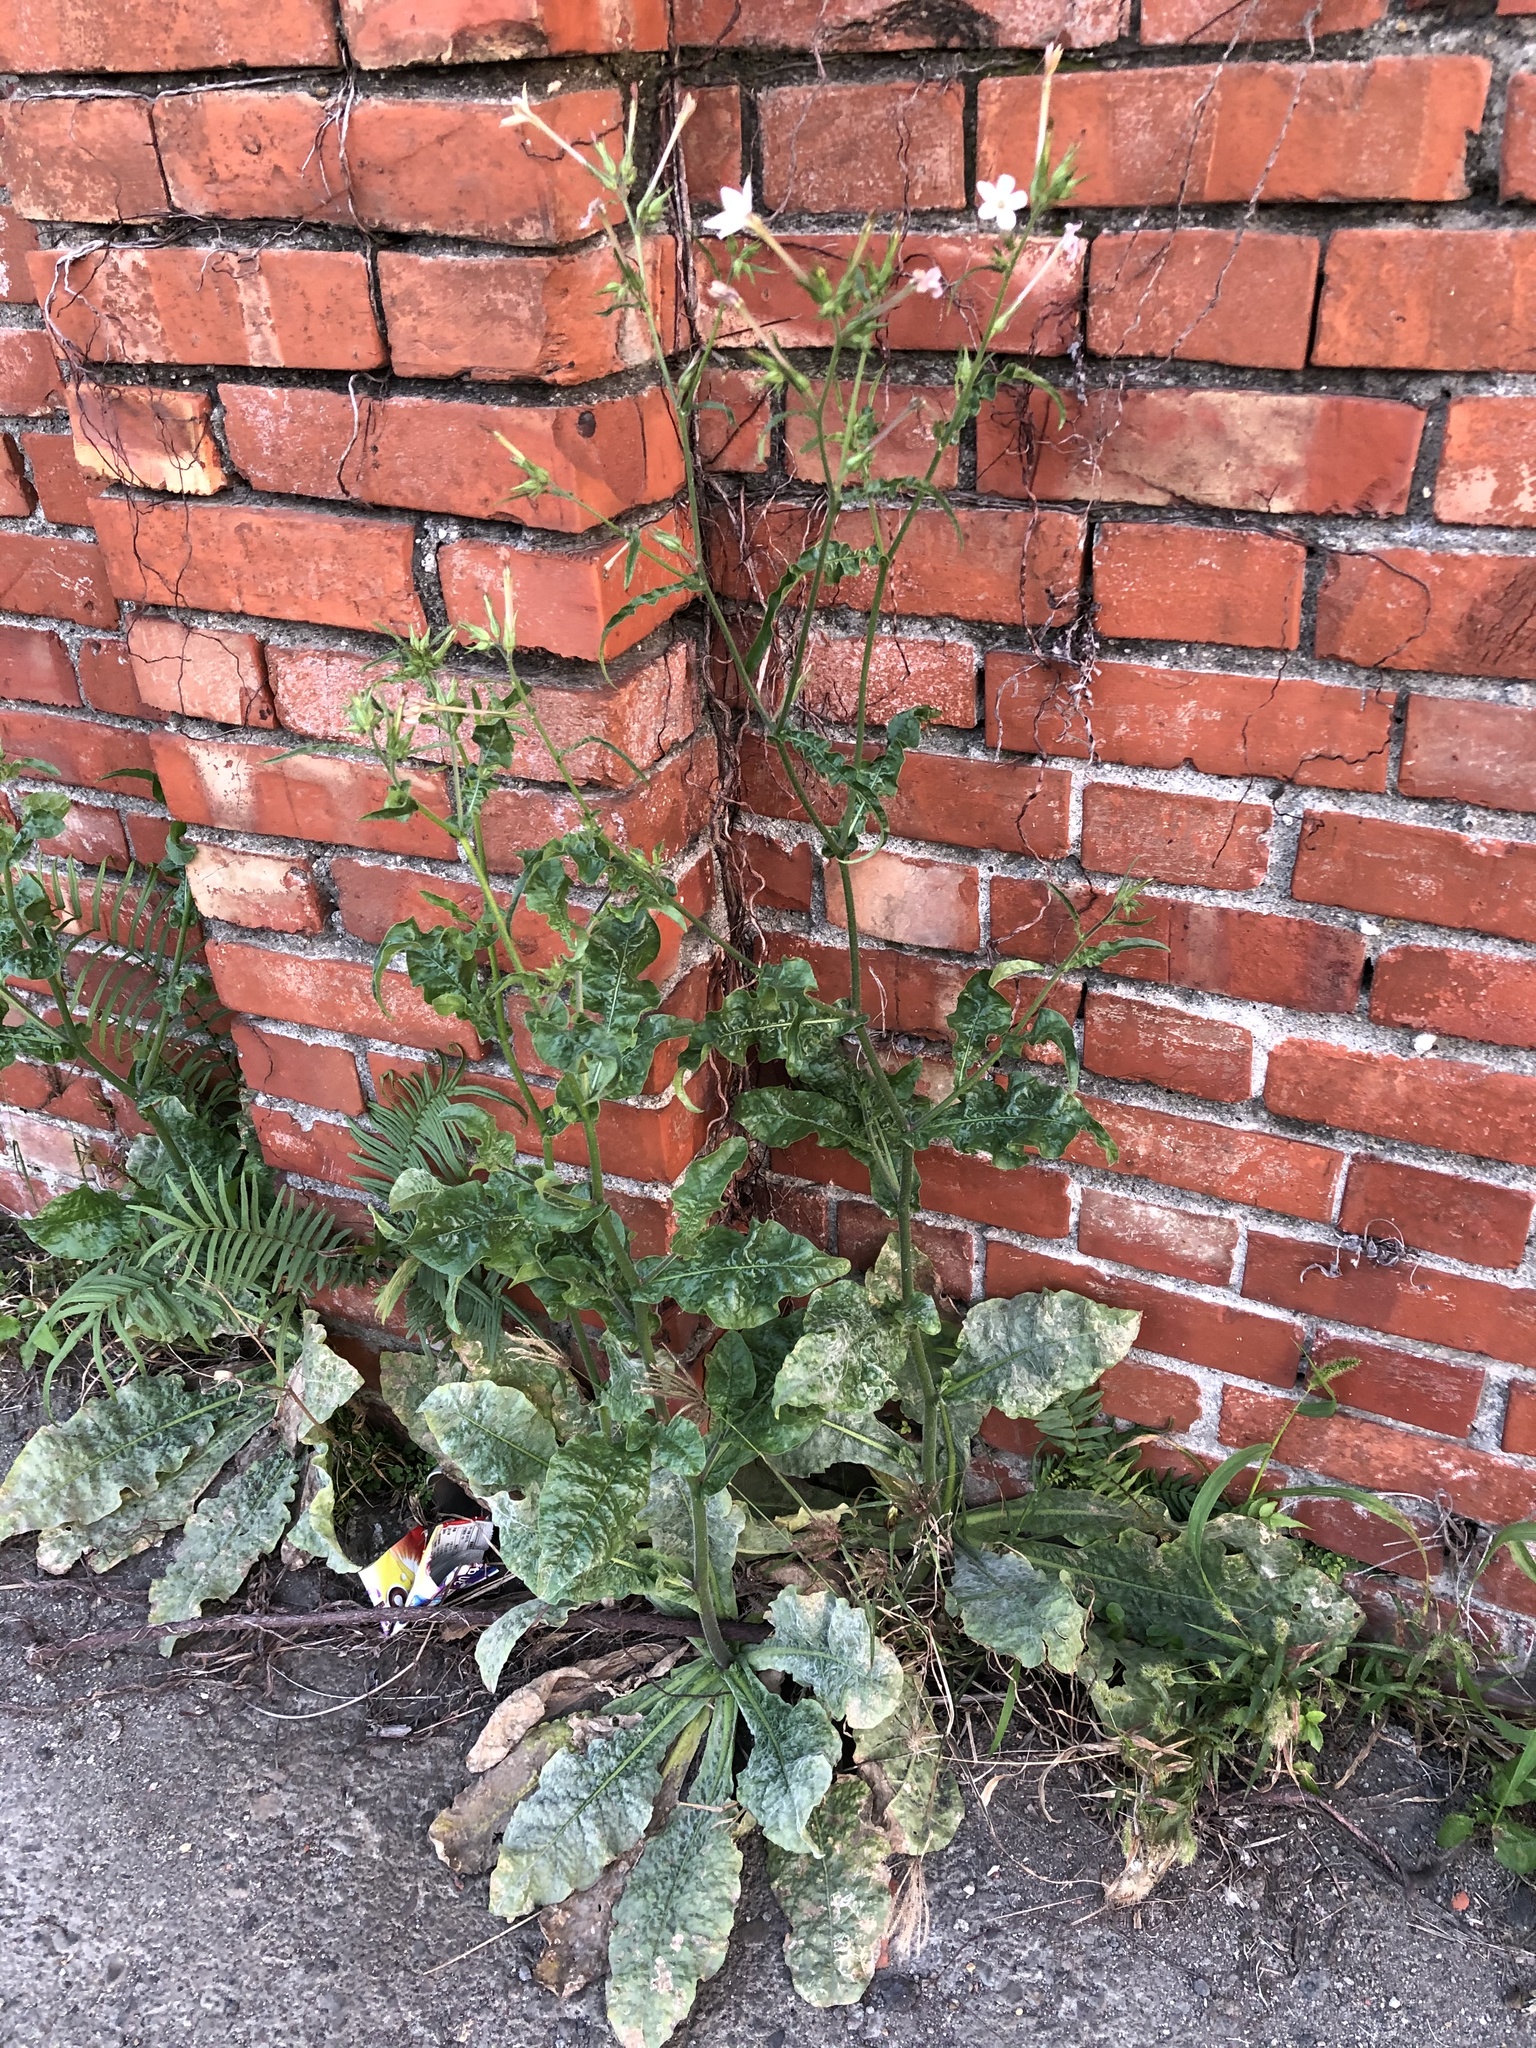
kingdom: Plantae
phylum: Tracheophyta
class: Magnoliopsida
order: Solanales
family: Solanaceae
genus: Nicotiana
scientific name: Nicotiana plumbaginifolia
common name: Tex-mex tobacco
